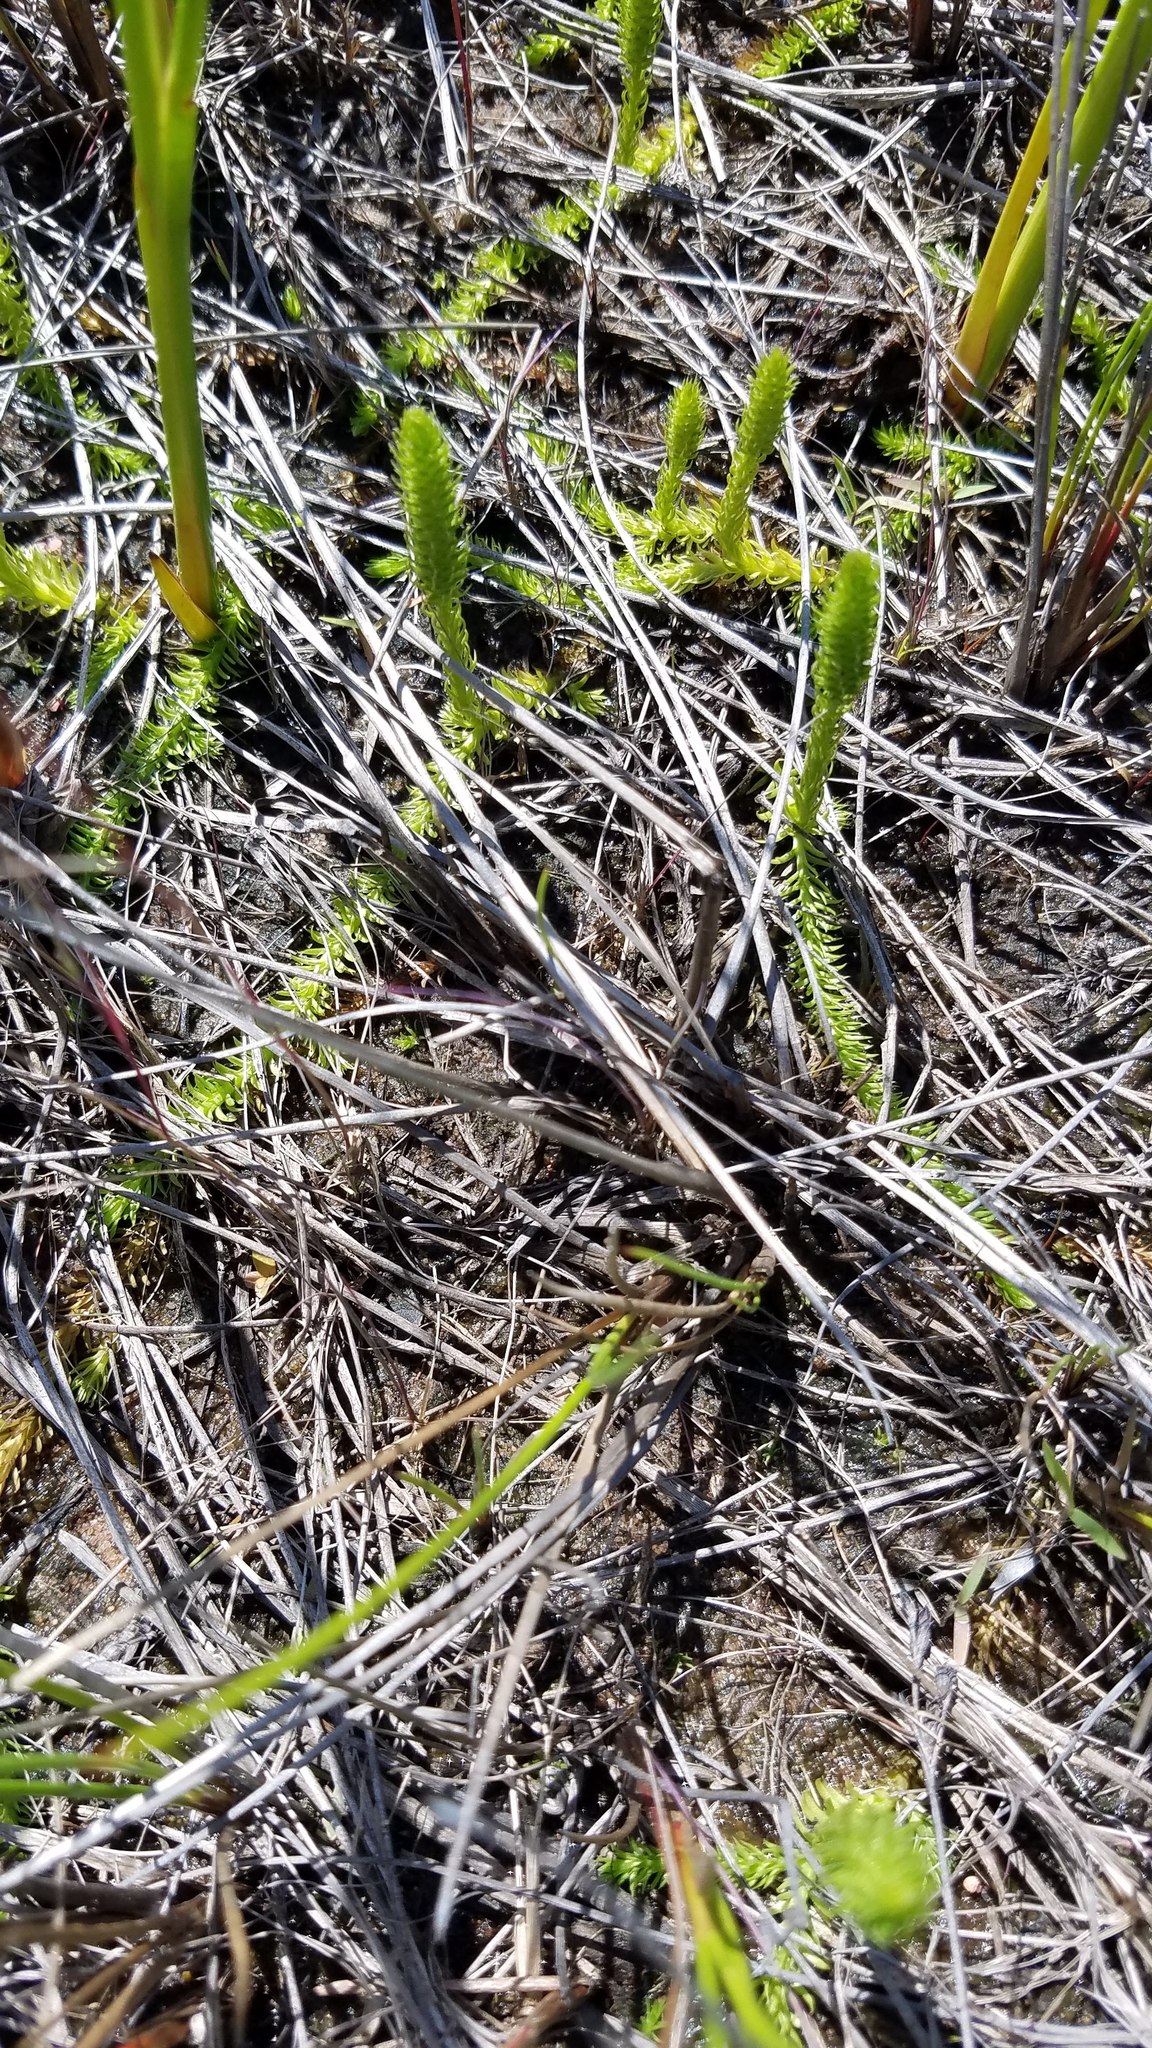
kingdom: Plantae
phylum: Tracheophyta
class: Lycopodiopsida
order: Lycopodiales
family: Lycopodiaceae
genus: Lycopodiella
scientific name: Lycopodiella inundata
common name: Marsh clubmoss
